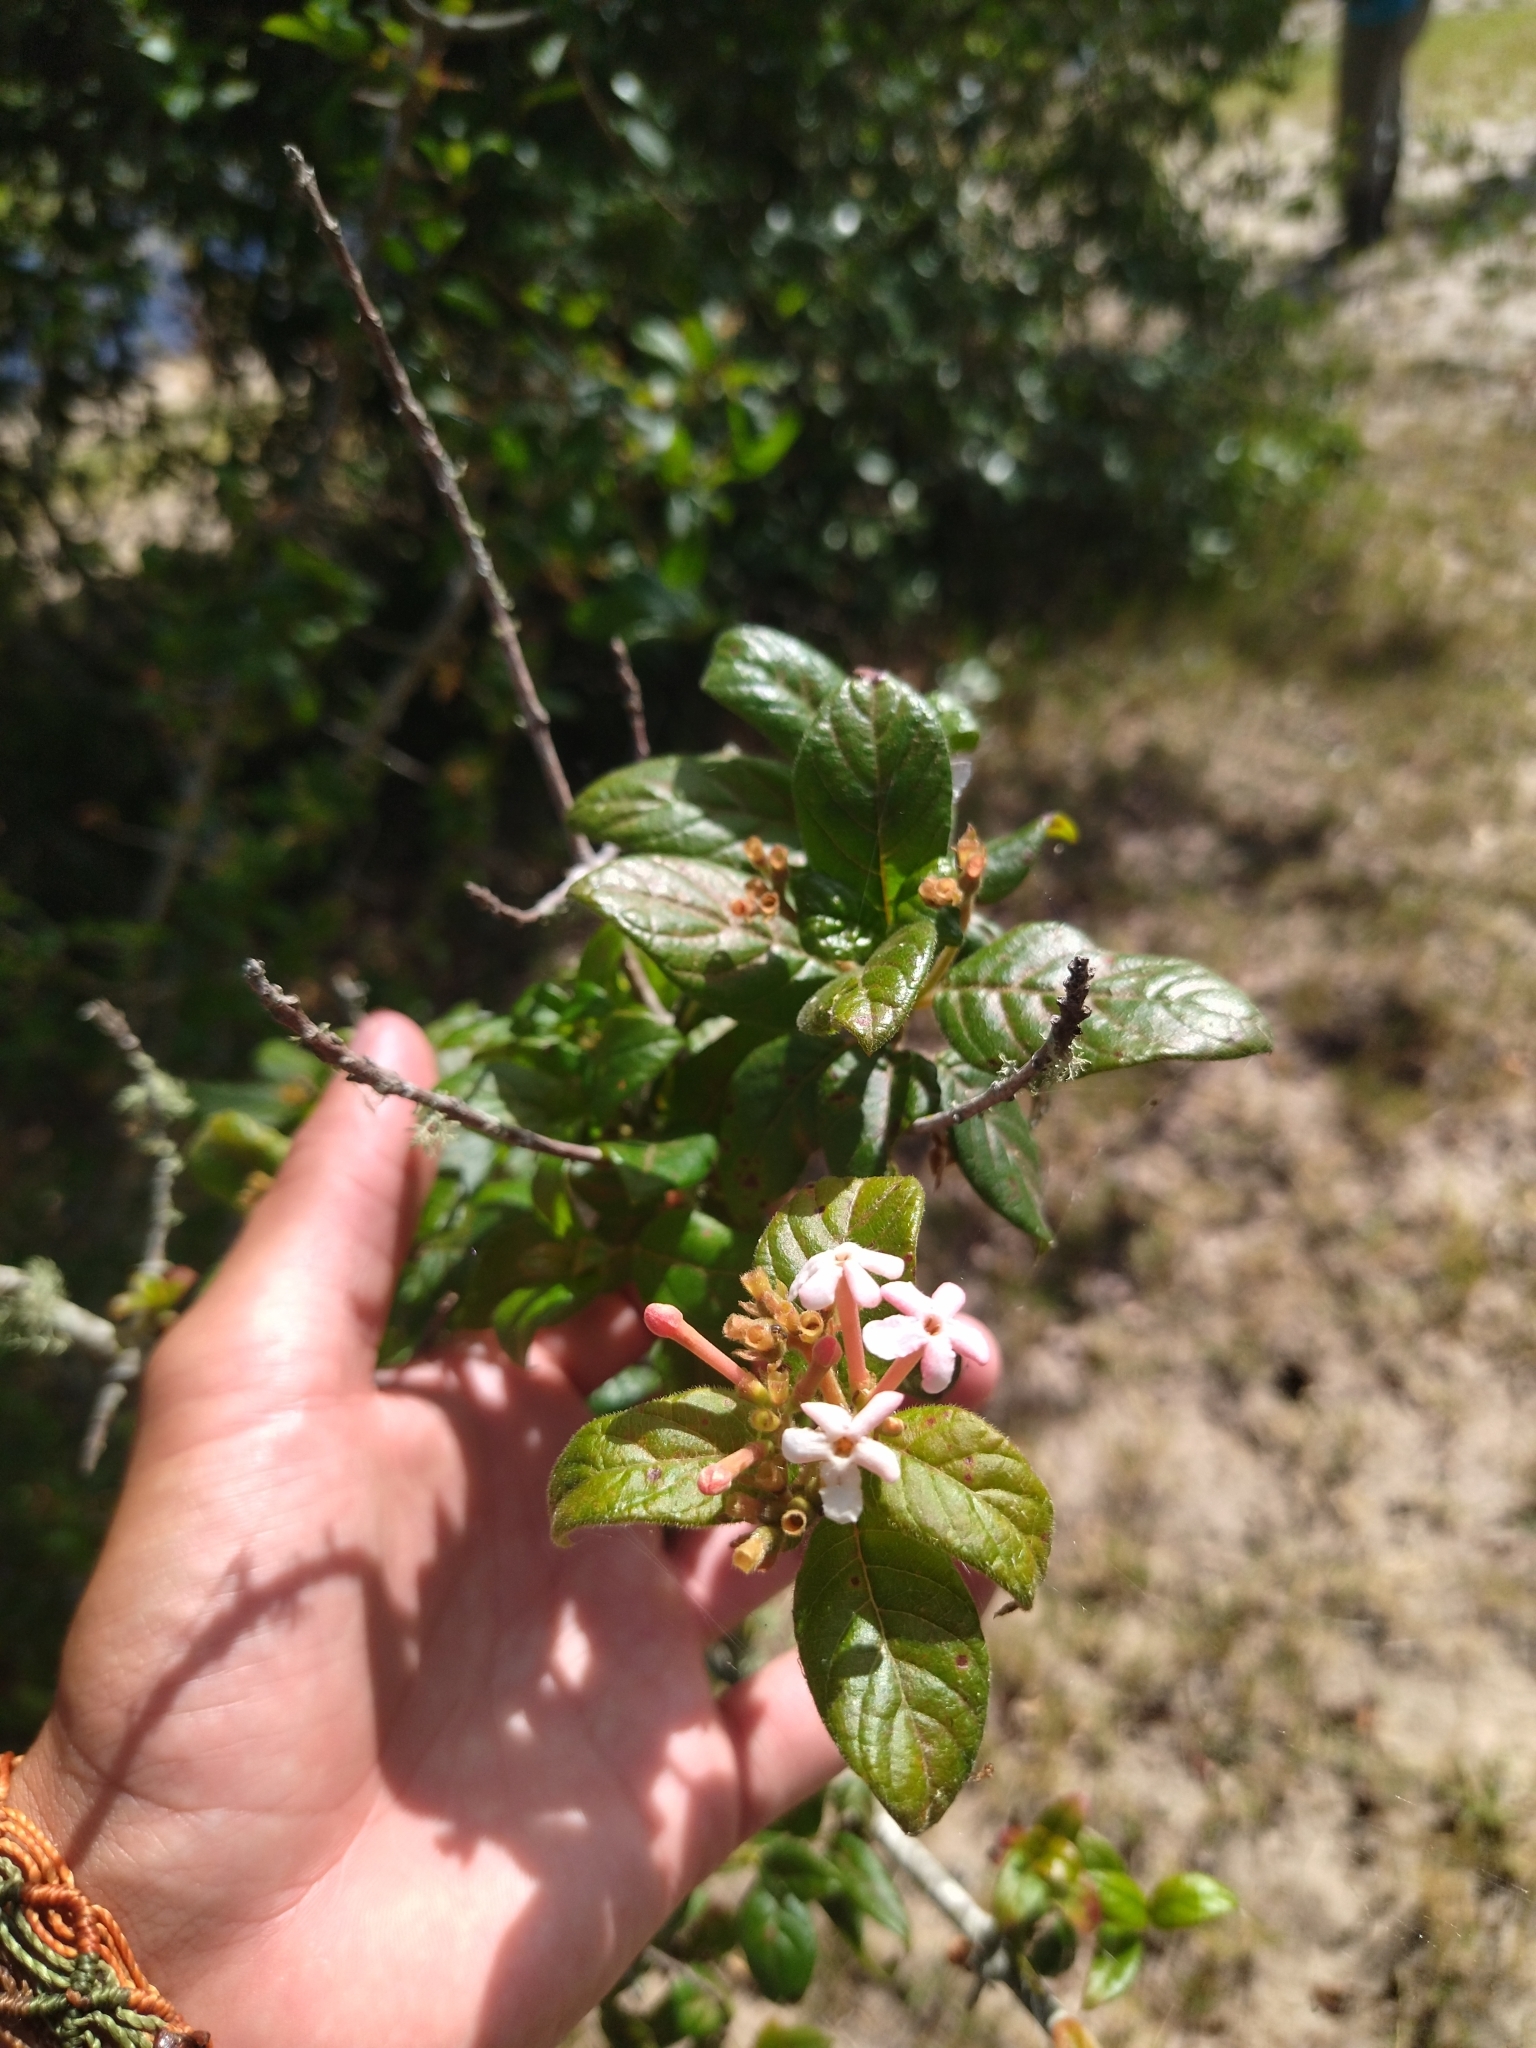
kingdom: Plantae
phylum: Tracheophyta
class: Magnoliopsida
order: Gentianales
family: Rubiaceae
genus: Guettarda
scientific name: Guettarda uruguensis
